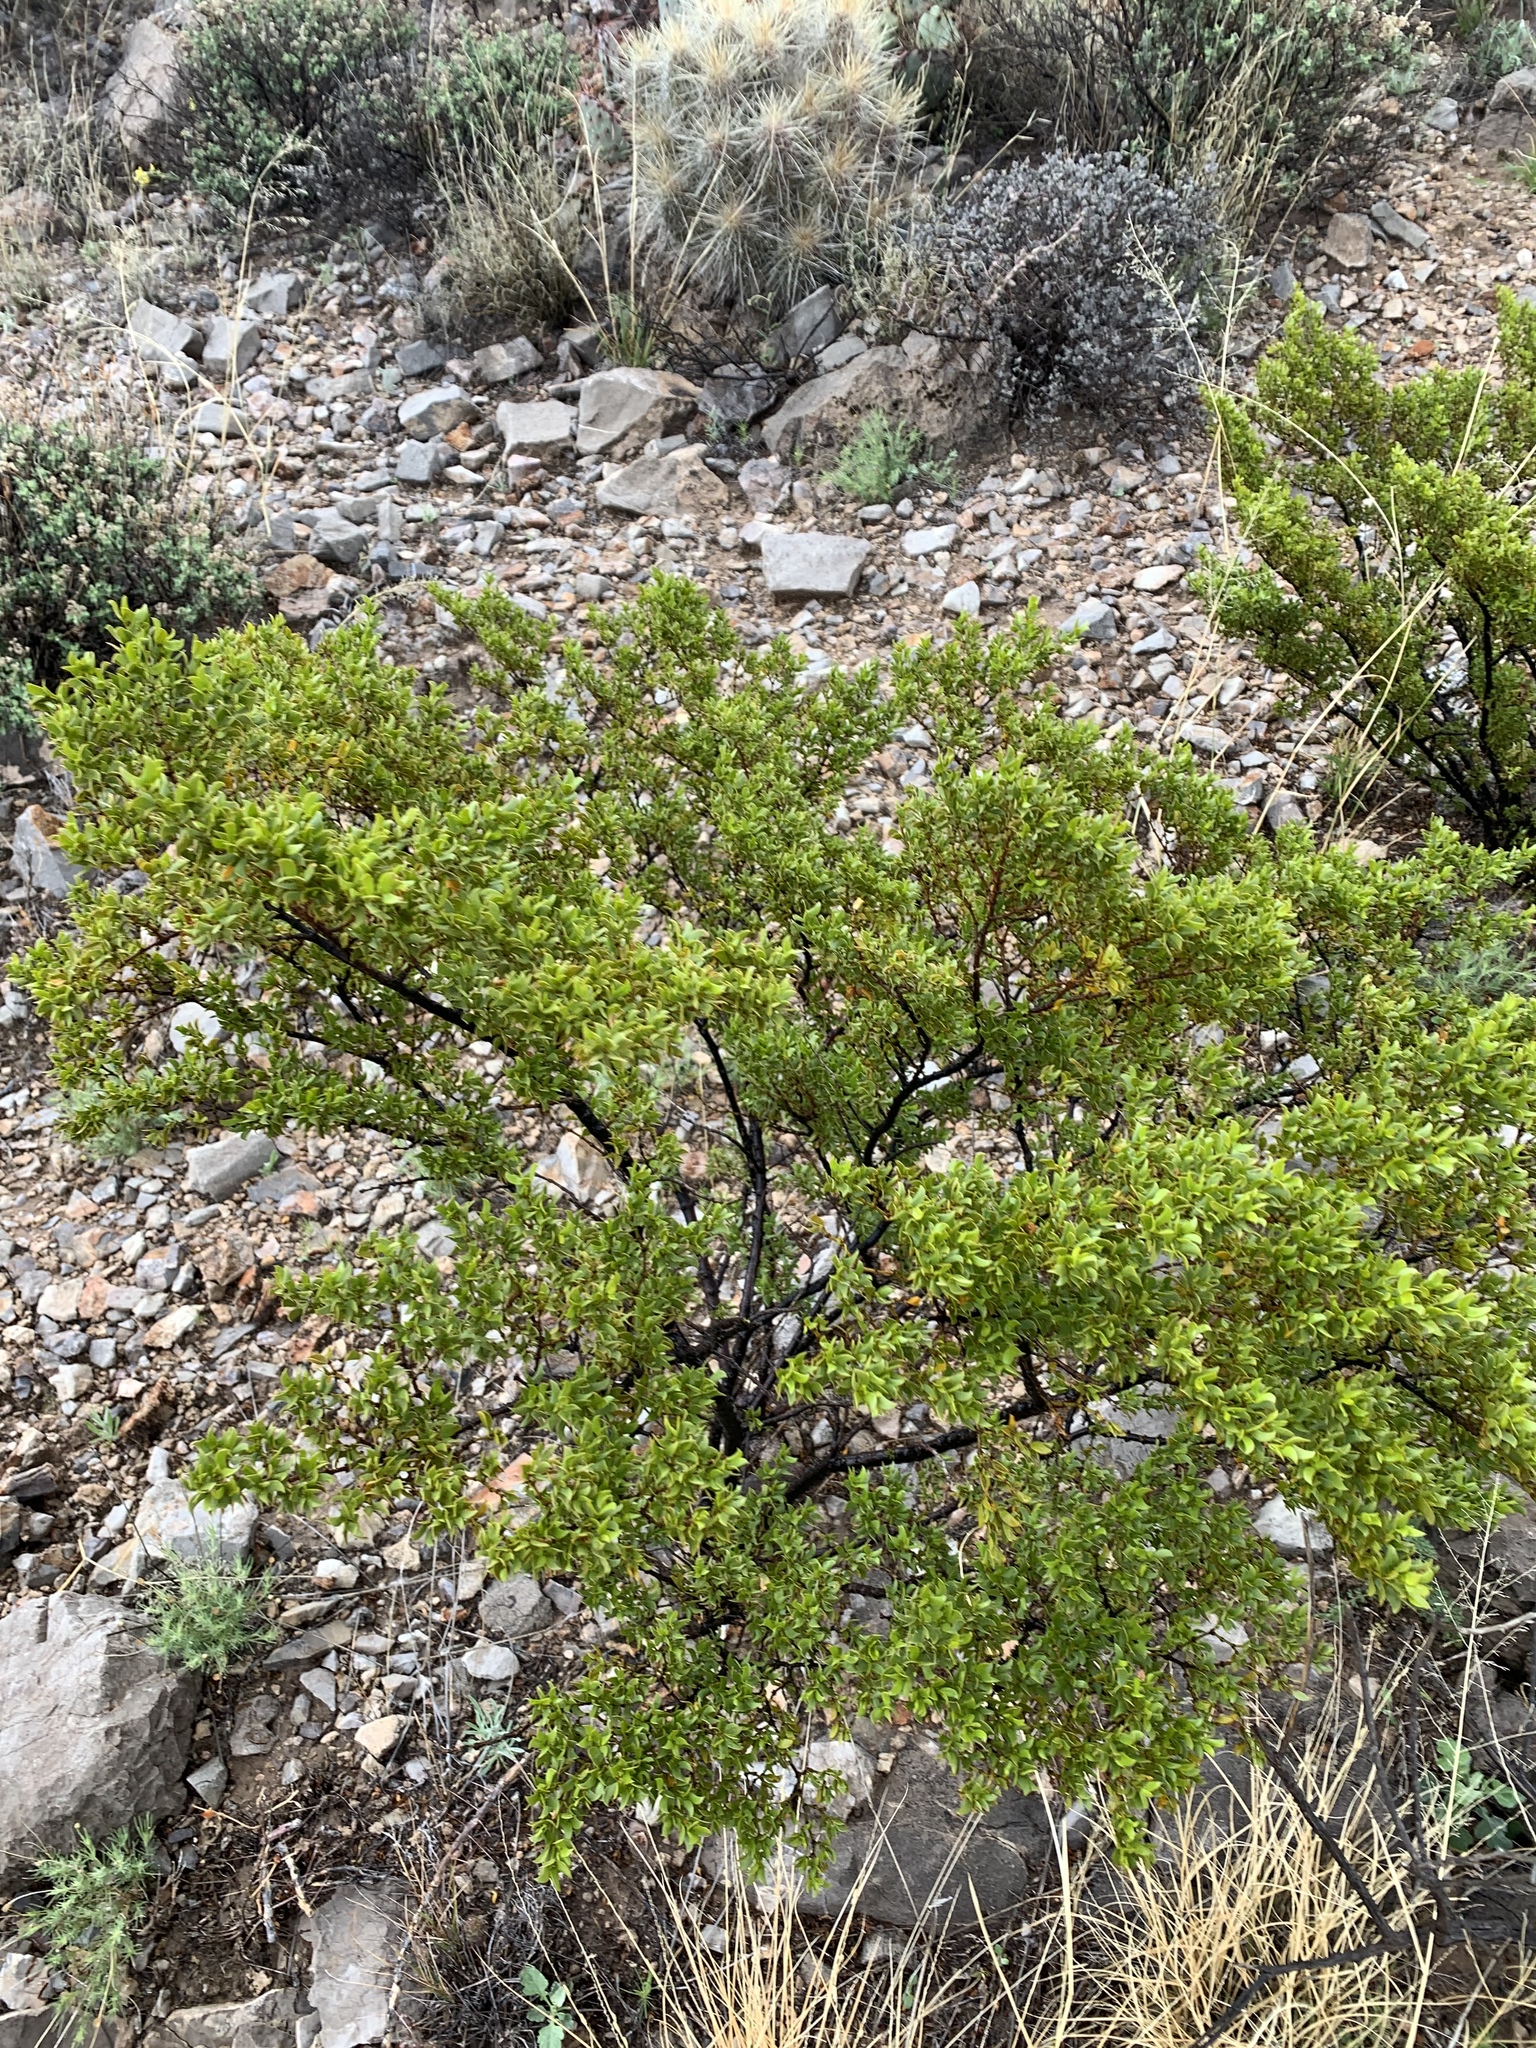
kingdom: Plantae
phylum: Tracheophyta
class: Magnoliopsida
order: Zygophyllales
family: Zygophyllaceae
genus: Larrea
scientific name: Larrea tridentata
